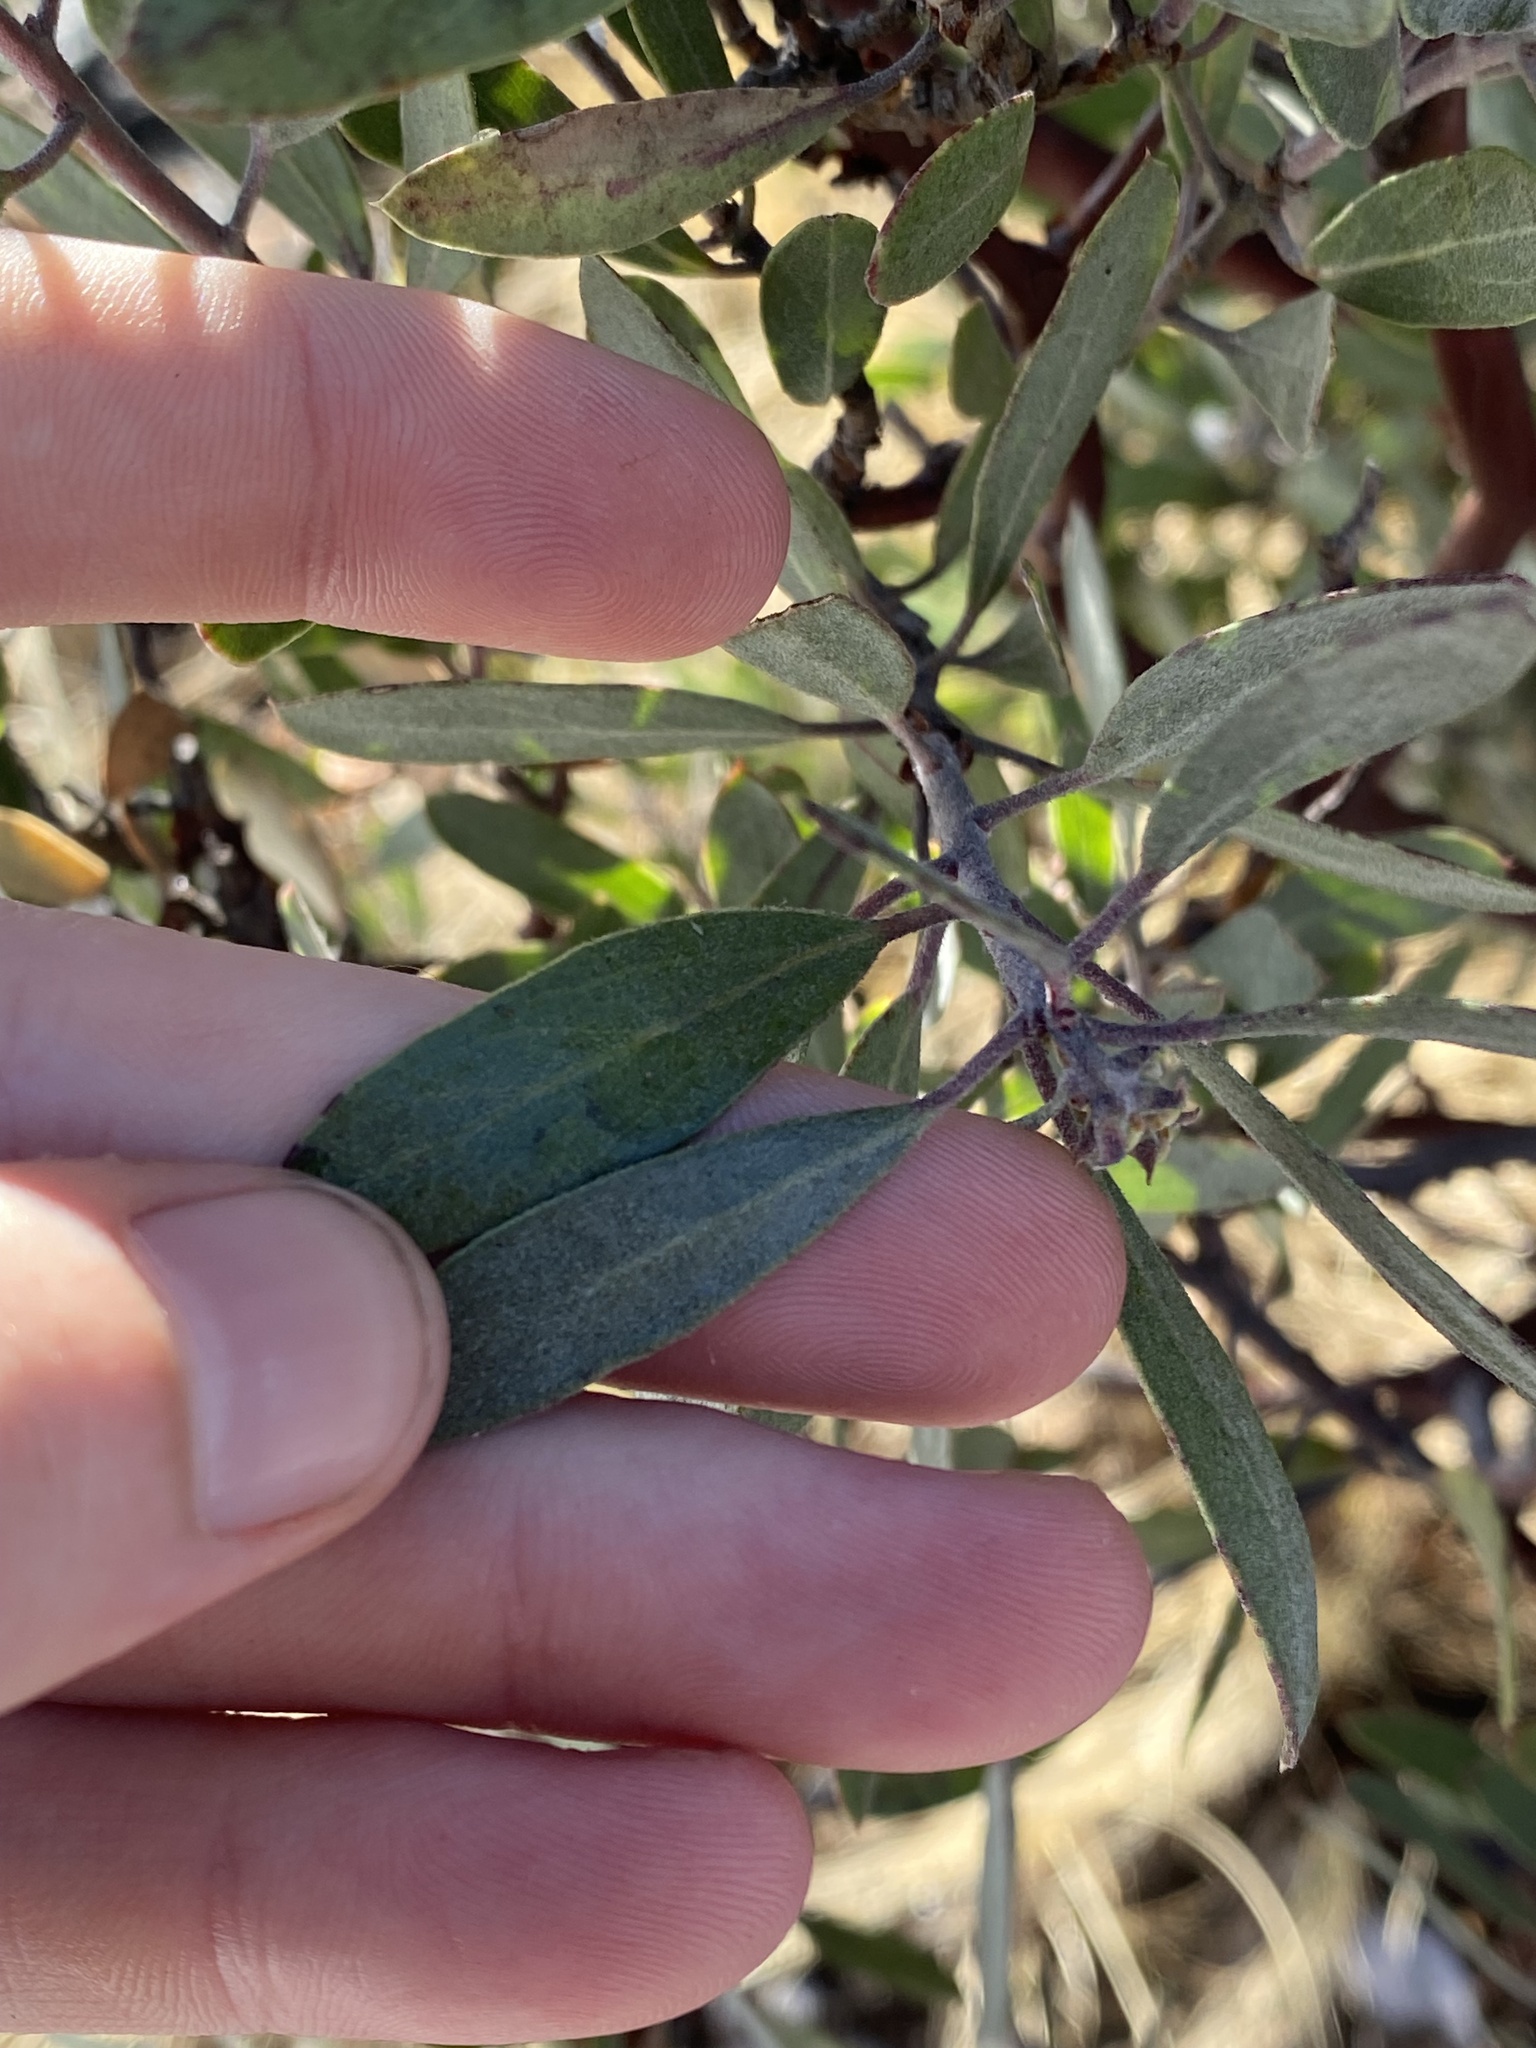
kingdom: Plantae
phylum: Tracheophyta
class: Magnoliopsida
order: Ericales
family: Ericaceae
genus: Arctostaphylos
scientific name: Arctostaphylos pungens
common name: Mexican manzanita
